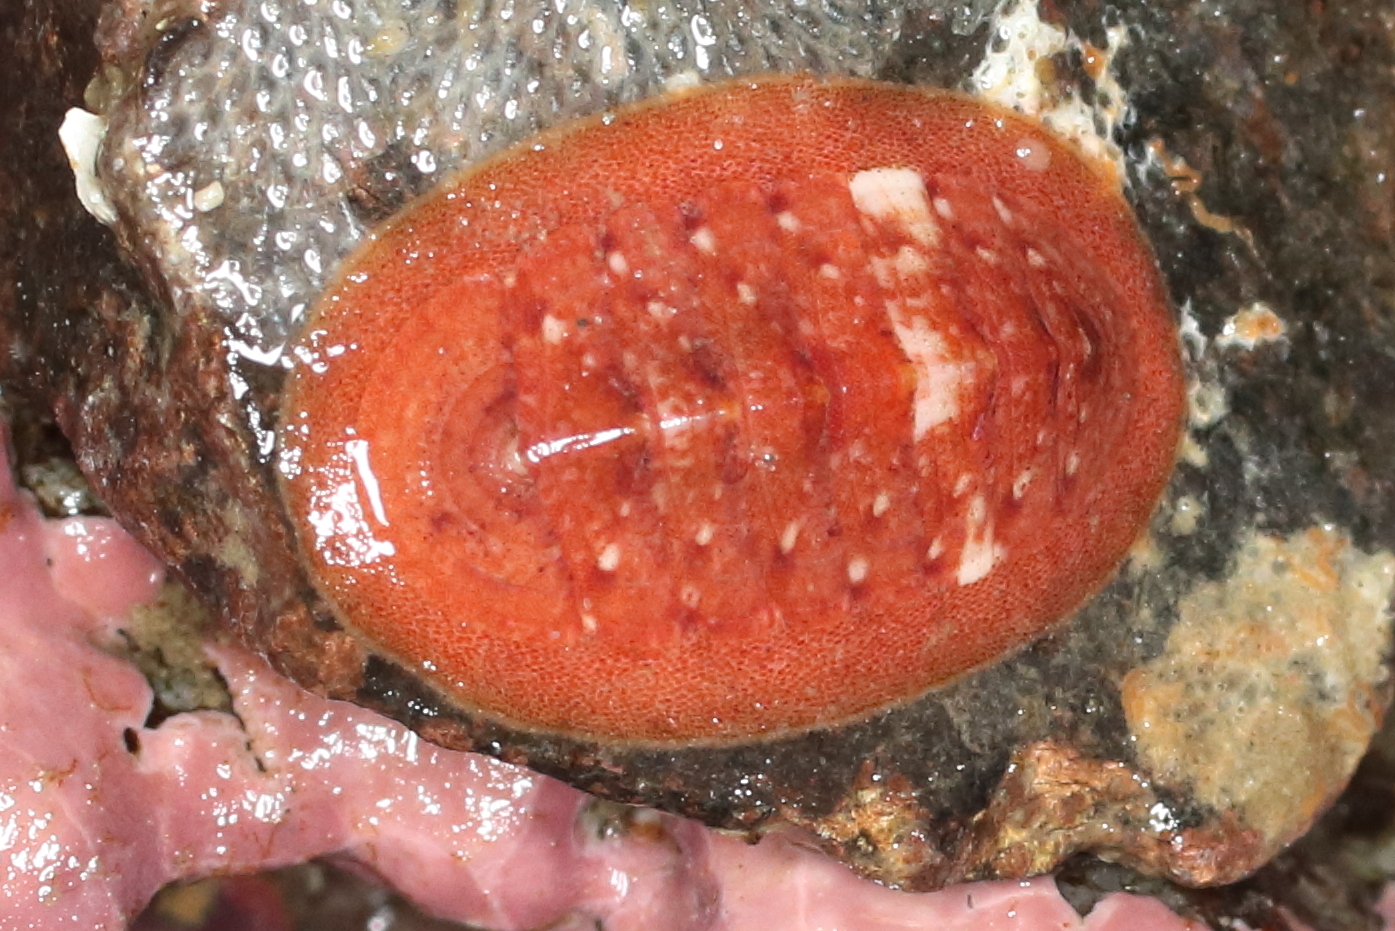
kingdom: Animalia
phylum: Mollusca
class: Polyplacophora
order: Chitonida
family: Ischnochitonidae
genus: Lepidozona
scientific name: Lepidozona interstincta
